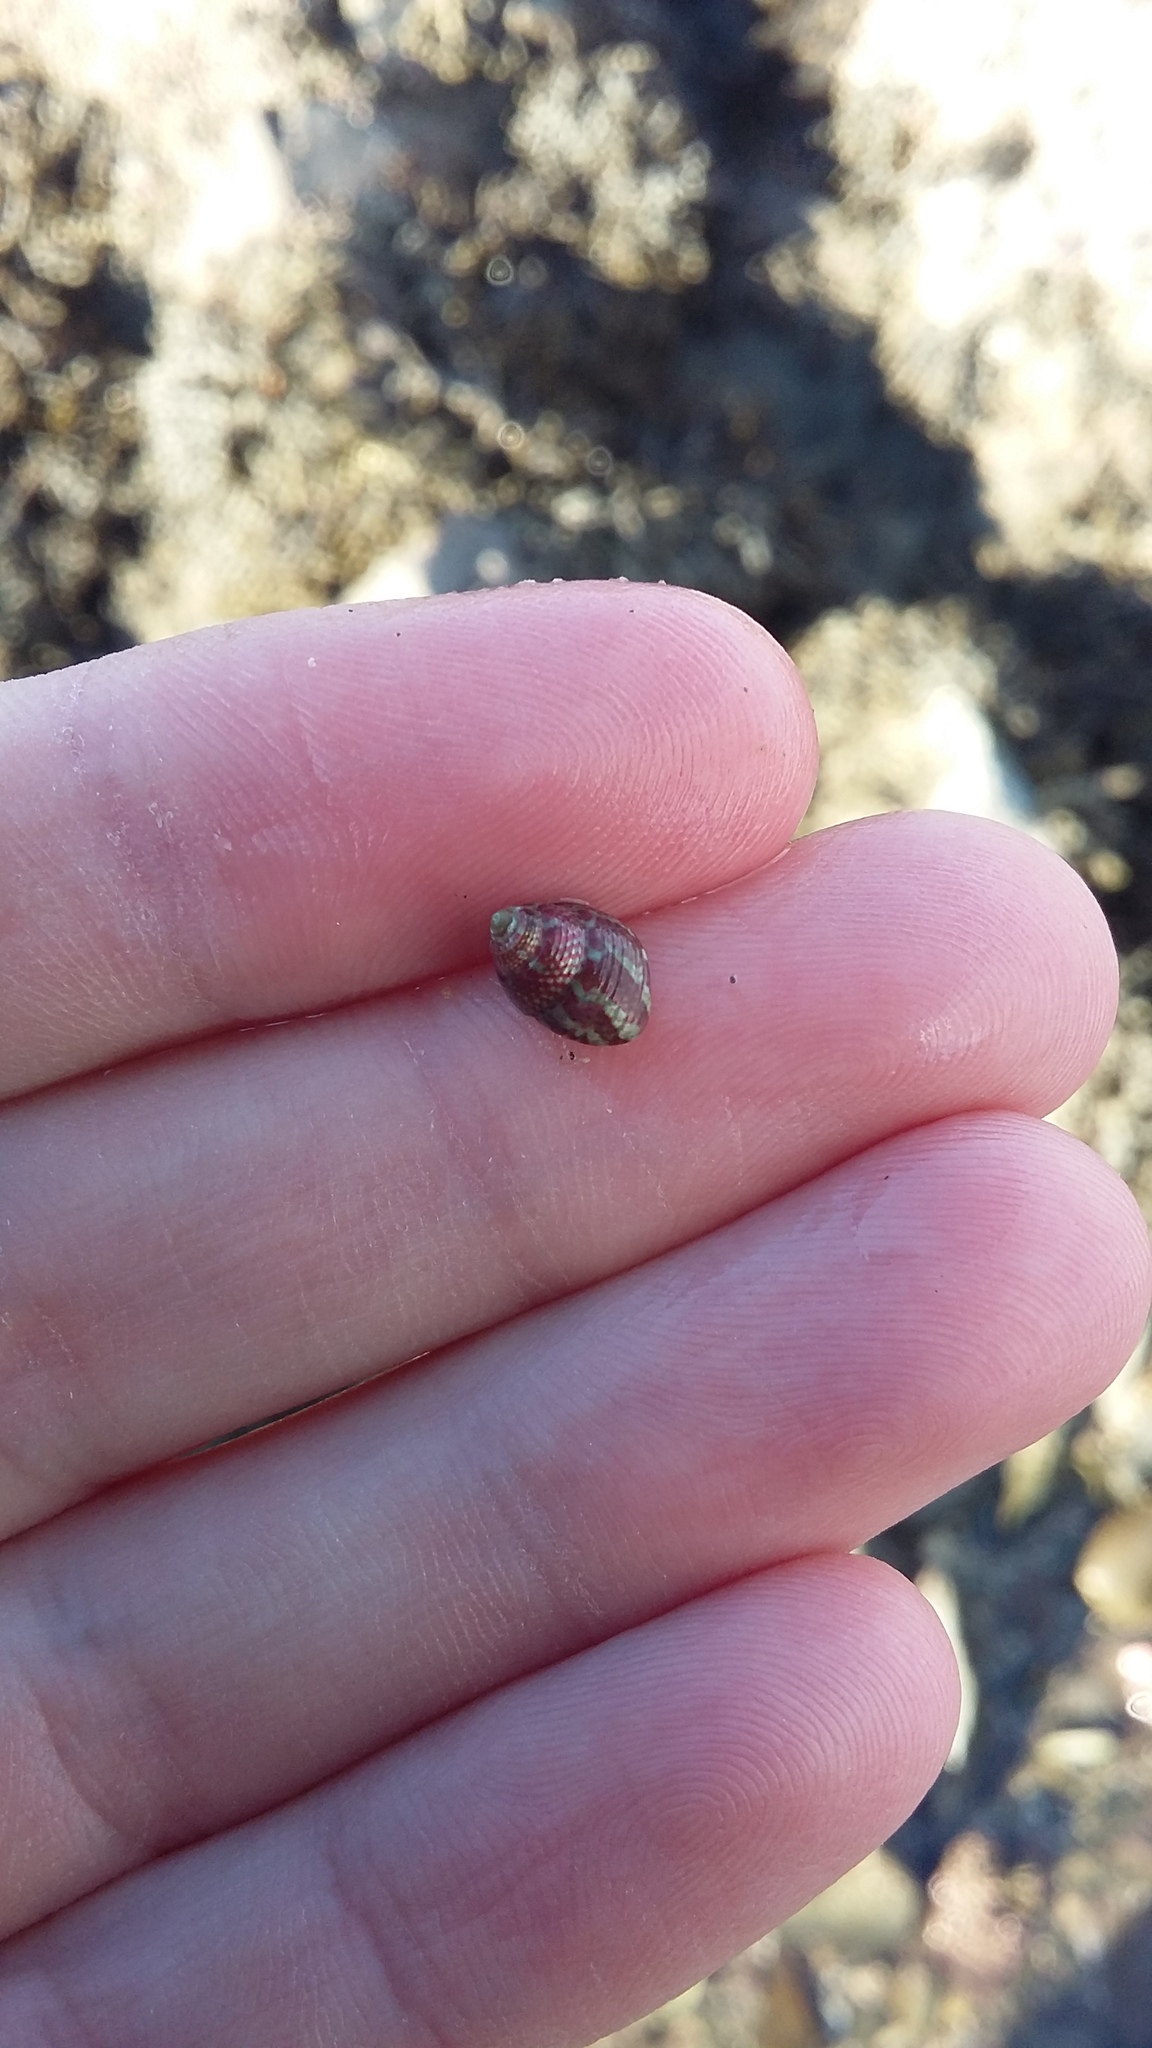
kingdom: Animalia
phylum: Mollusca
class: Gastropoda
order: Trochida
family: Trochidae
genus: Micrelenchus
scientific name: Micrelenchus sanguineus
